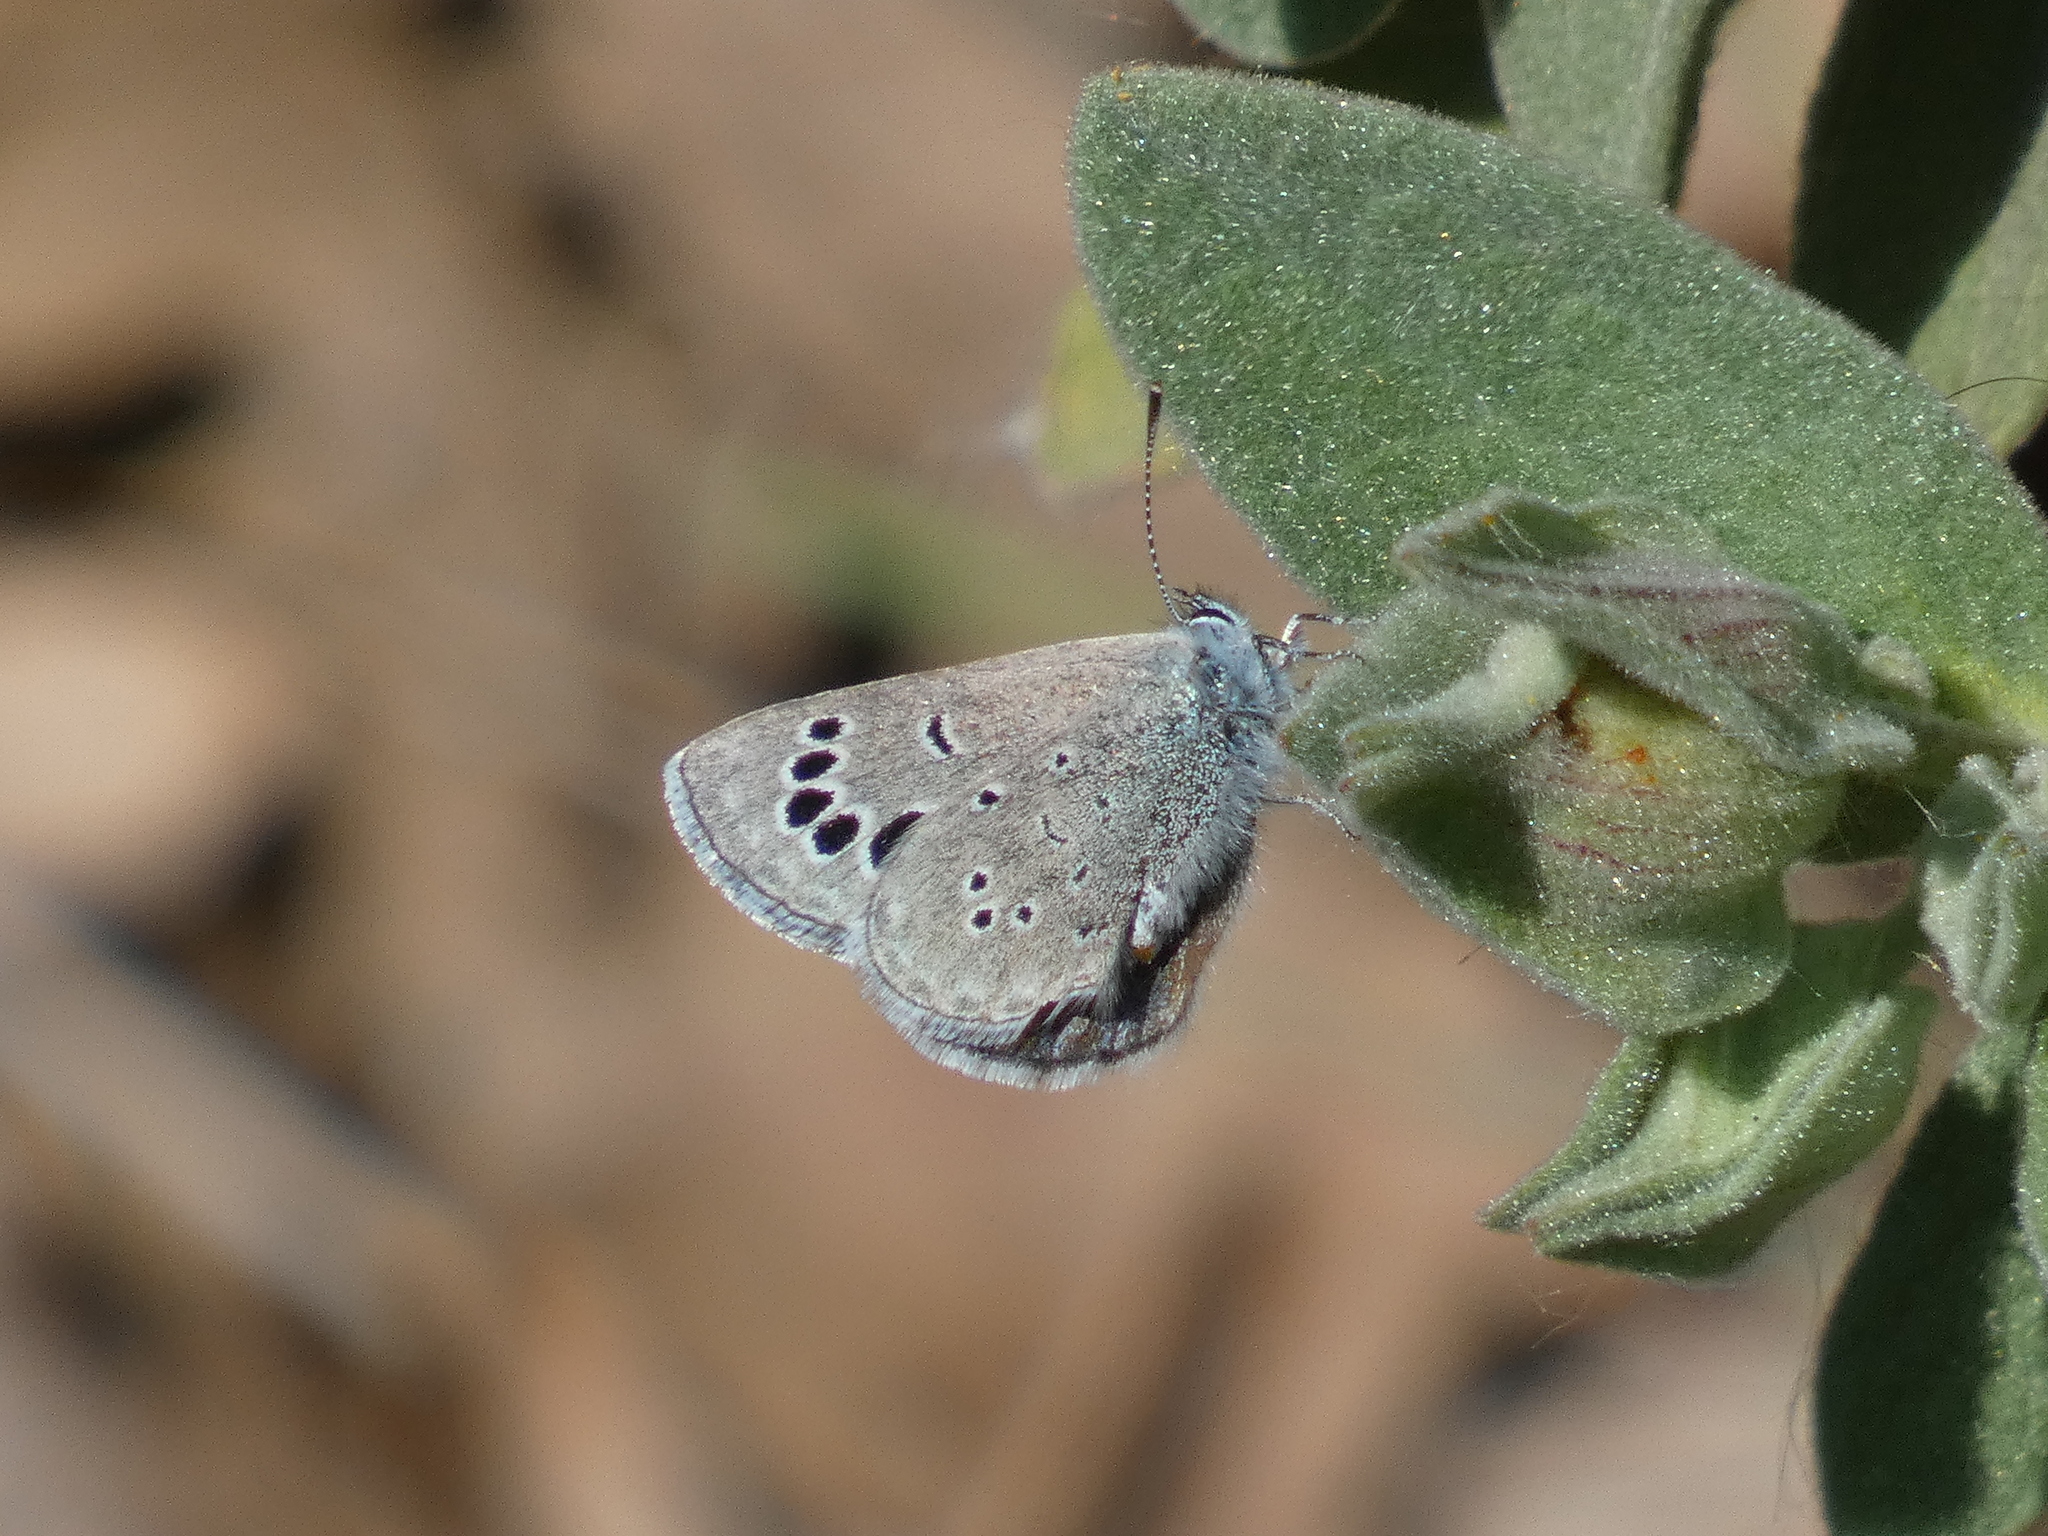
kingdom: Animalia
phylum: Arthropoda
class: Insecta
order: Lepidoptera
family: Lycaenidae
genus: Glaucopsyche
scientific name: Glaucopsyche melanops
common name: Black-eyed blue
